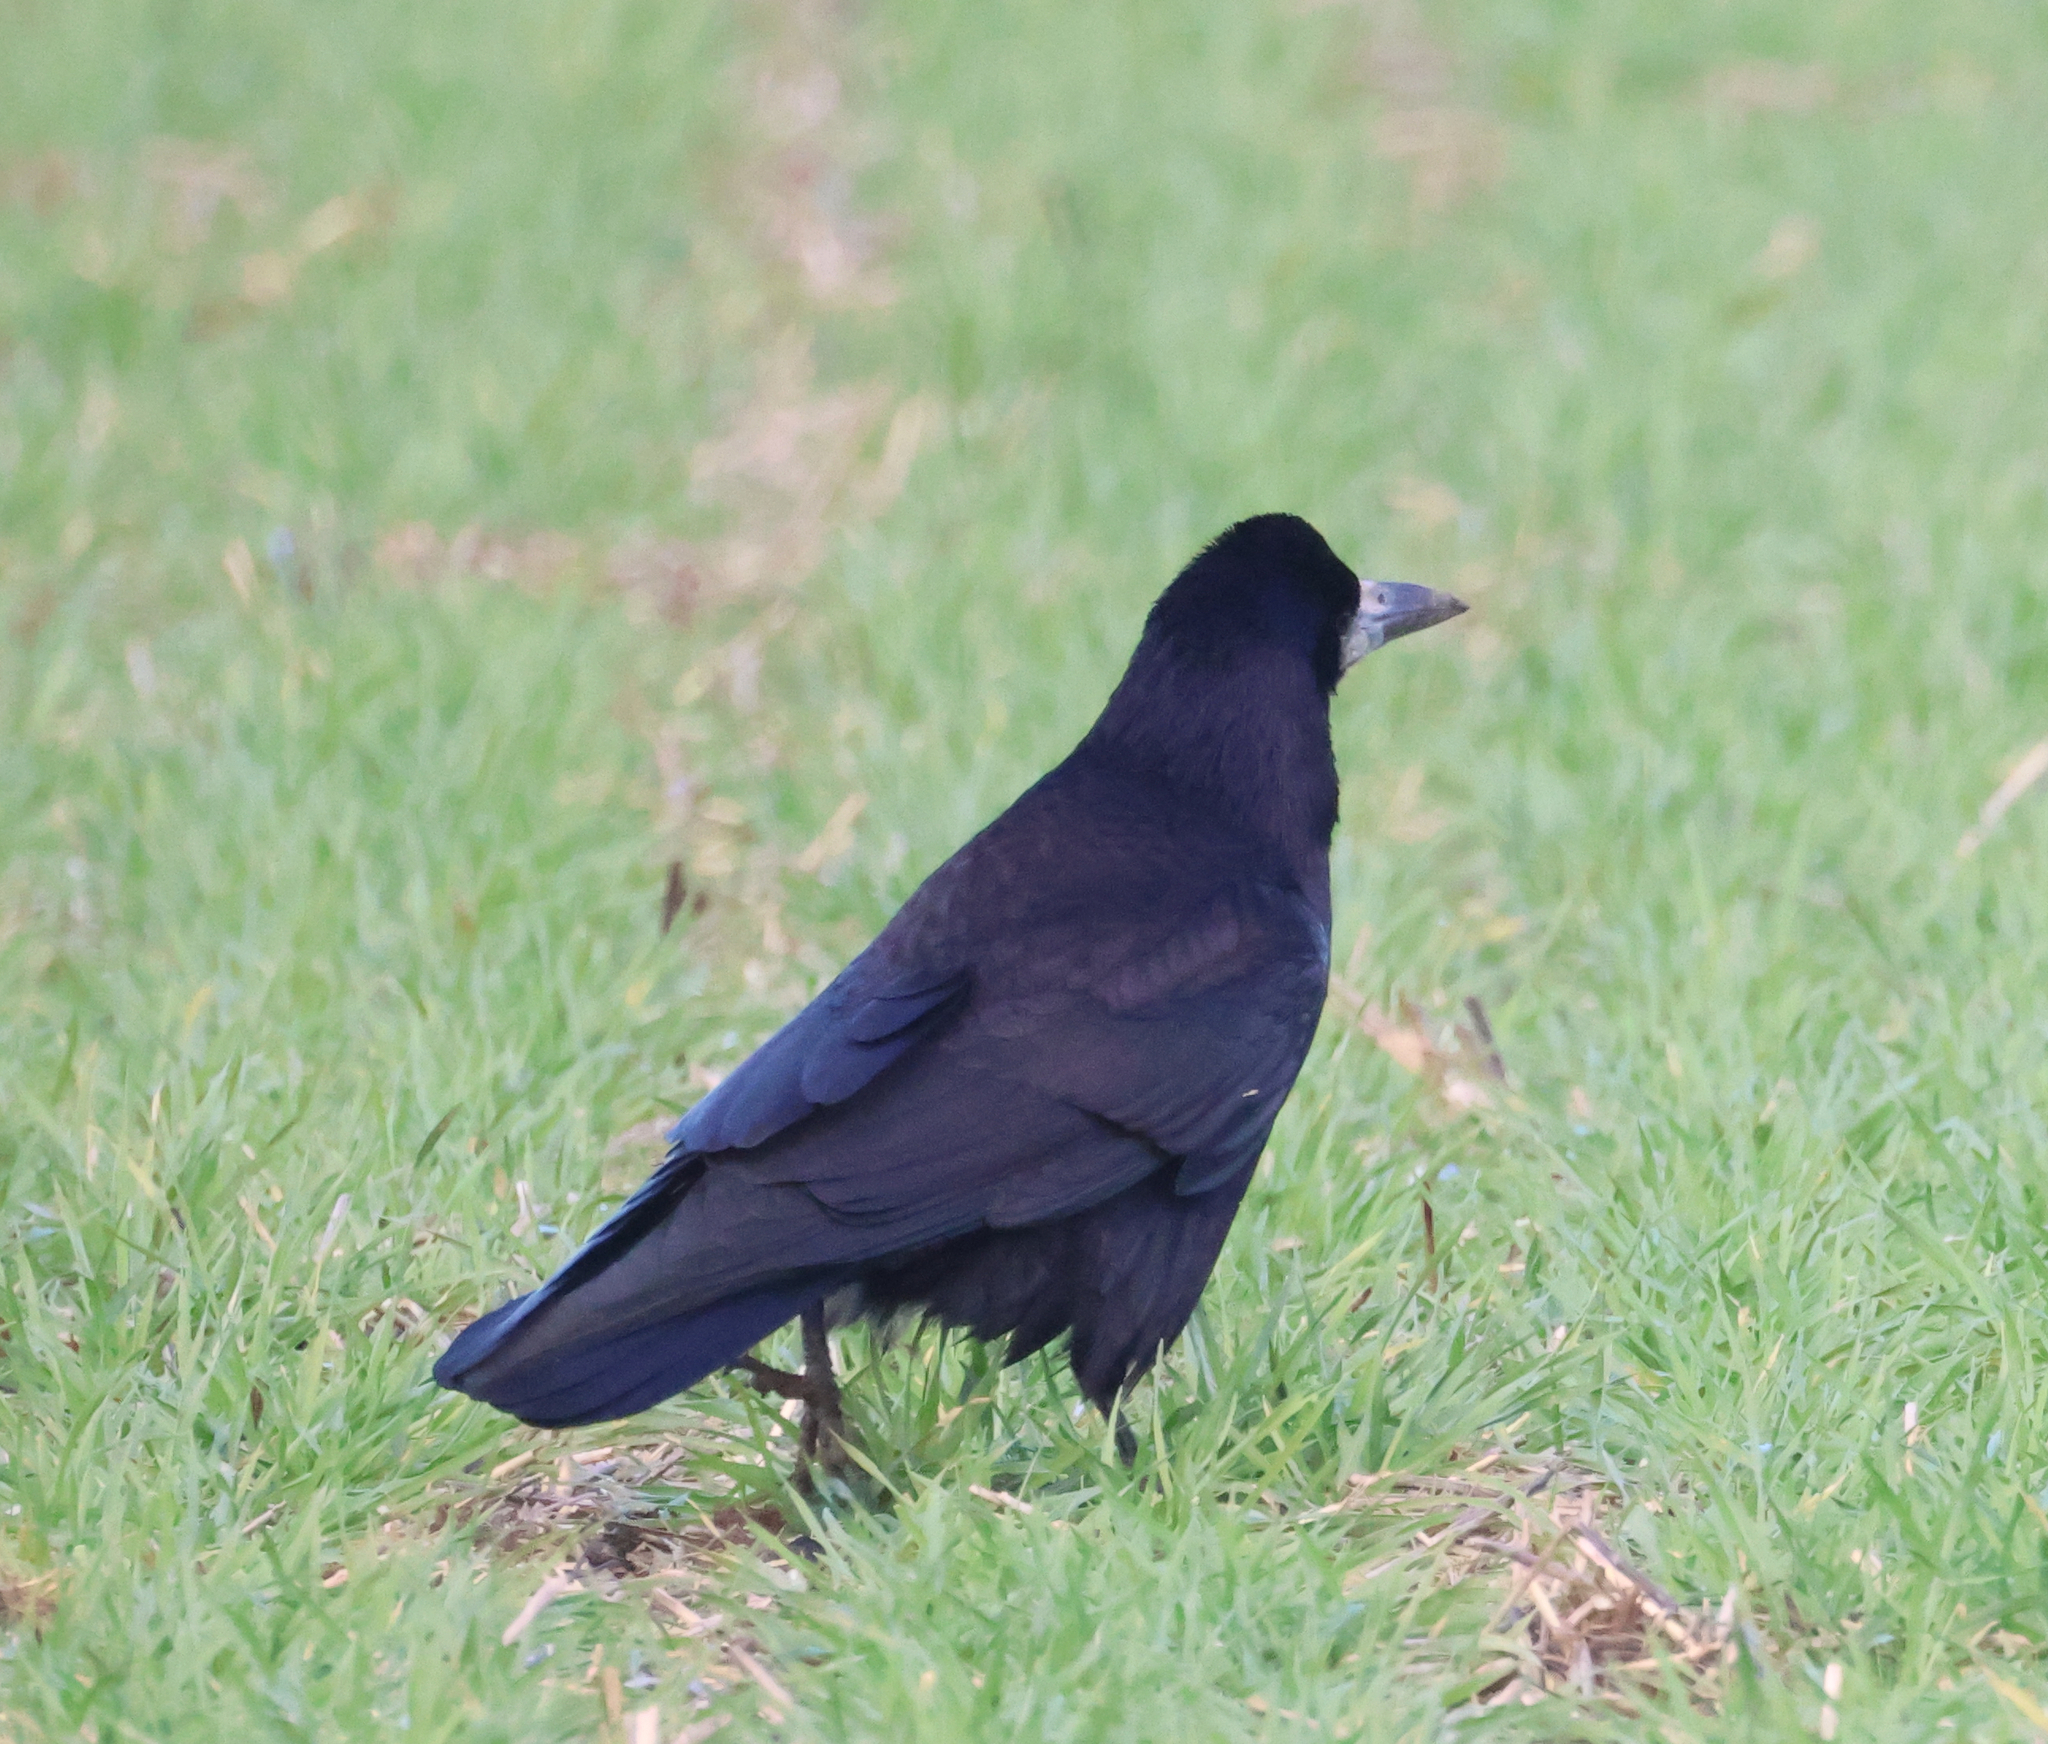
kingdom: Animalia
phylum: Chordata
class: Aves
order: Passeriformes
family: Corvidae
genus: Corvus
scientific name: Corvus frugilegus
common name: Rook
